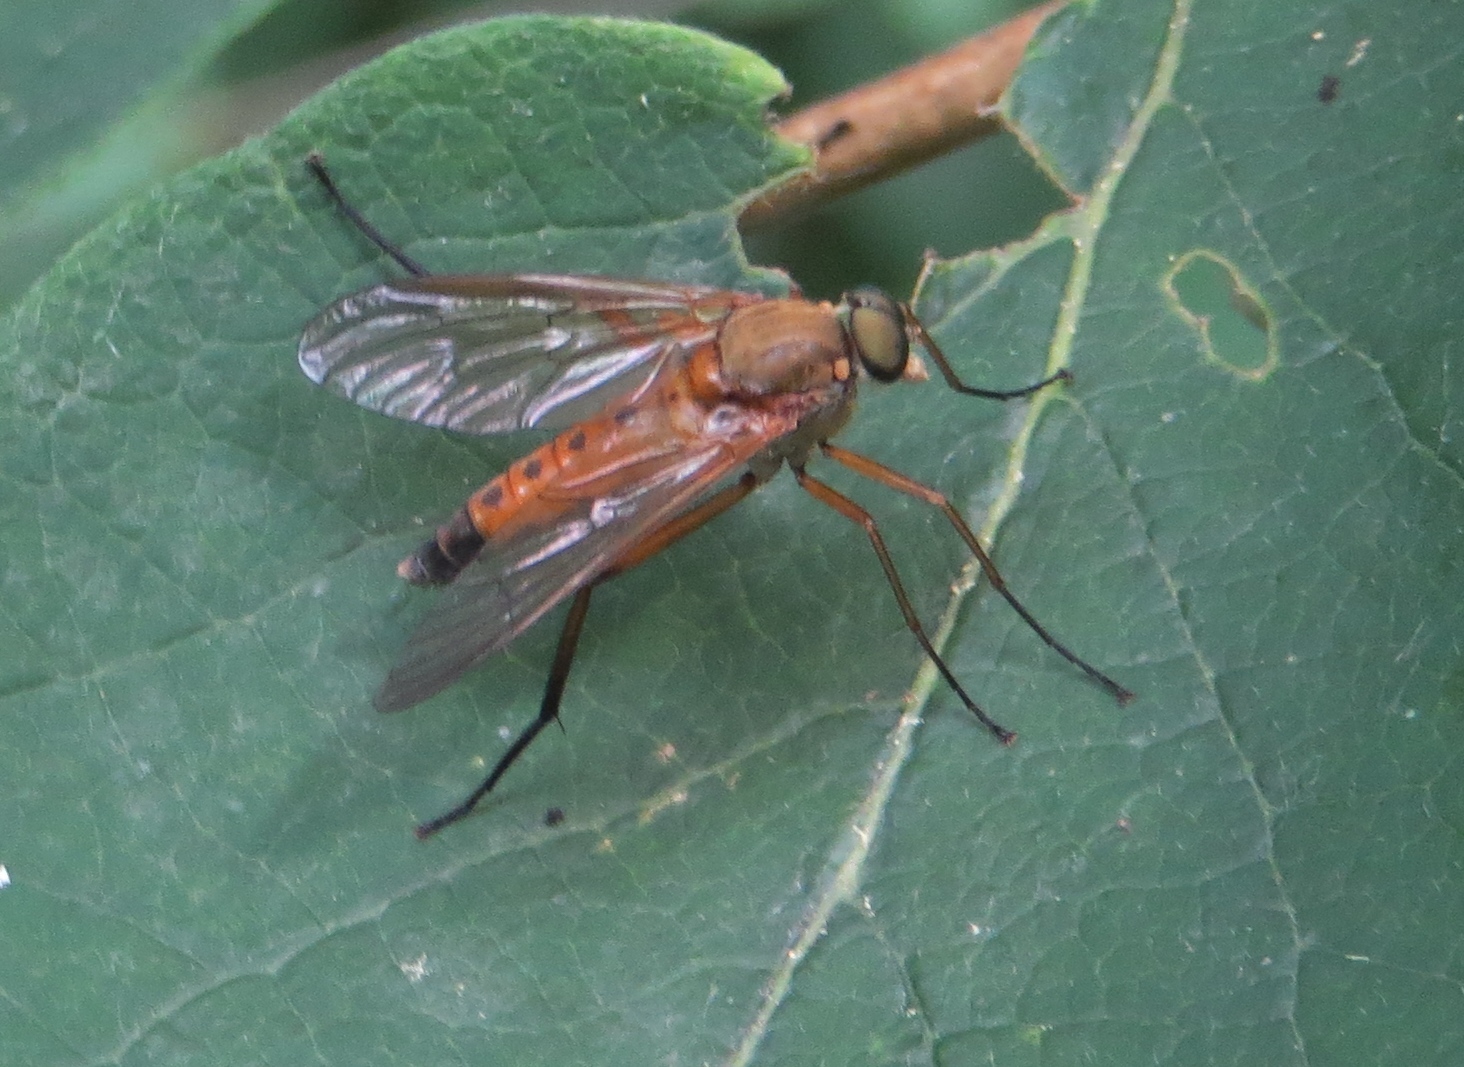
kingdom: Animalia
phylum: Arthropoda
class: Insecta
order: Diptera
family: Rhagionidae
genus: Rhagio
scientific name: Rhagio tringaria
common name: Marsh snipefly
